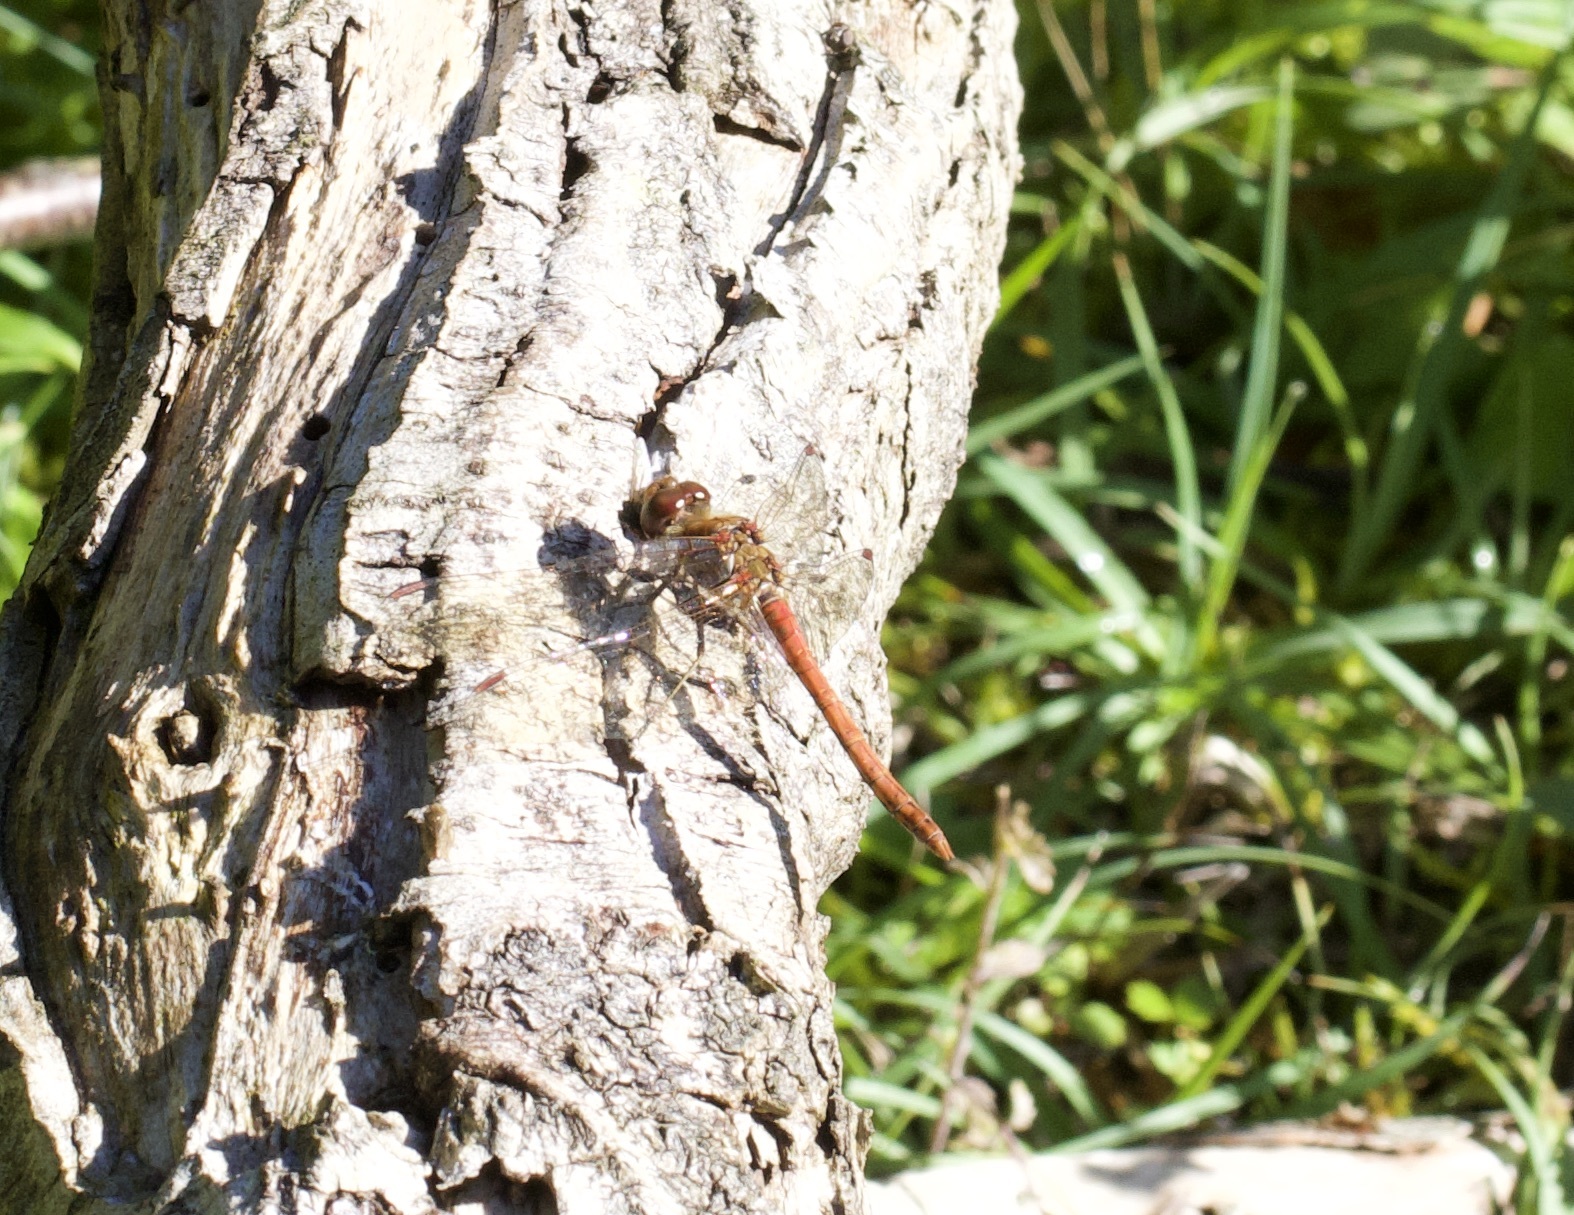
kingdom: Animalia
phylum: Arthropoda
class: Insecta
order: Odonata
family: Libellulidae
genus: Sympetrum
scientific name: Sympetrum striolatum
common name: Common darter
